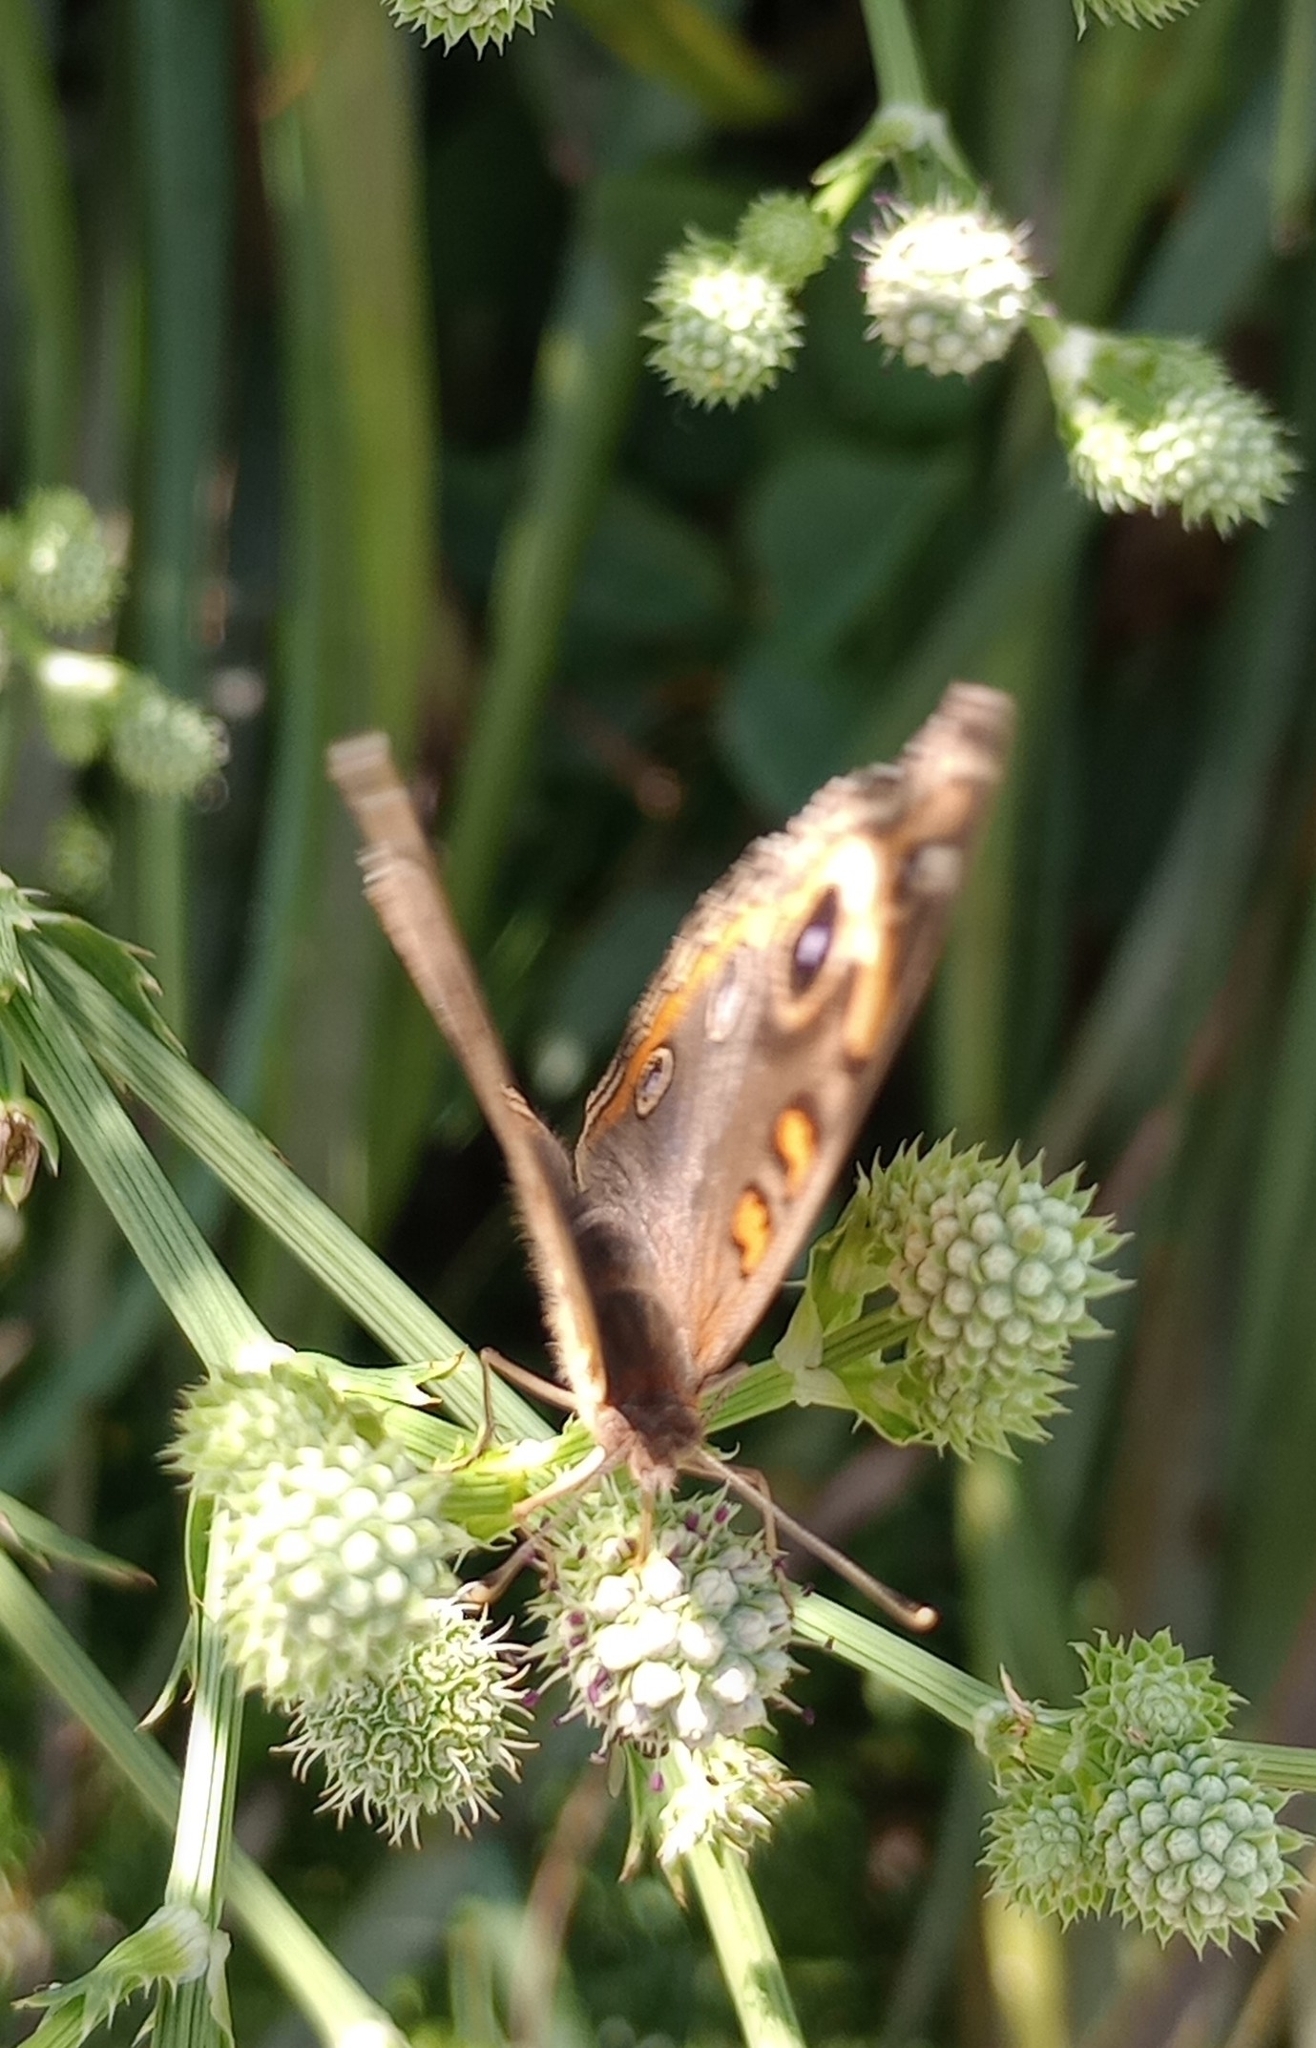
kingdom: Animalia
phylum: Arthropoda
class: Insecta
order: Lepidoptera
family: Nymphalidae
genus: Junonia
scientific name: Junonia lavinia
